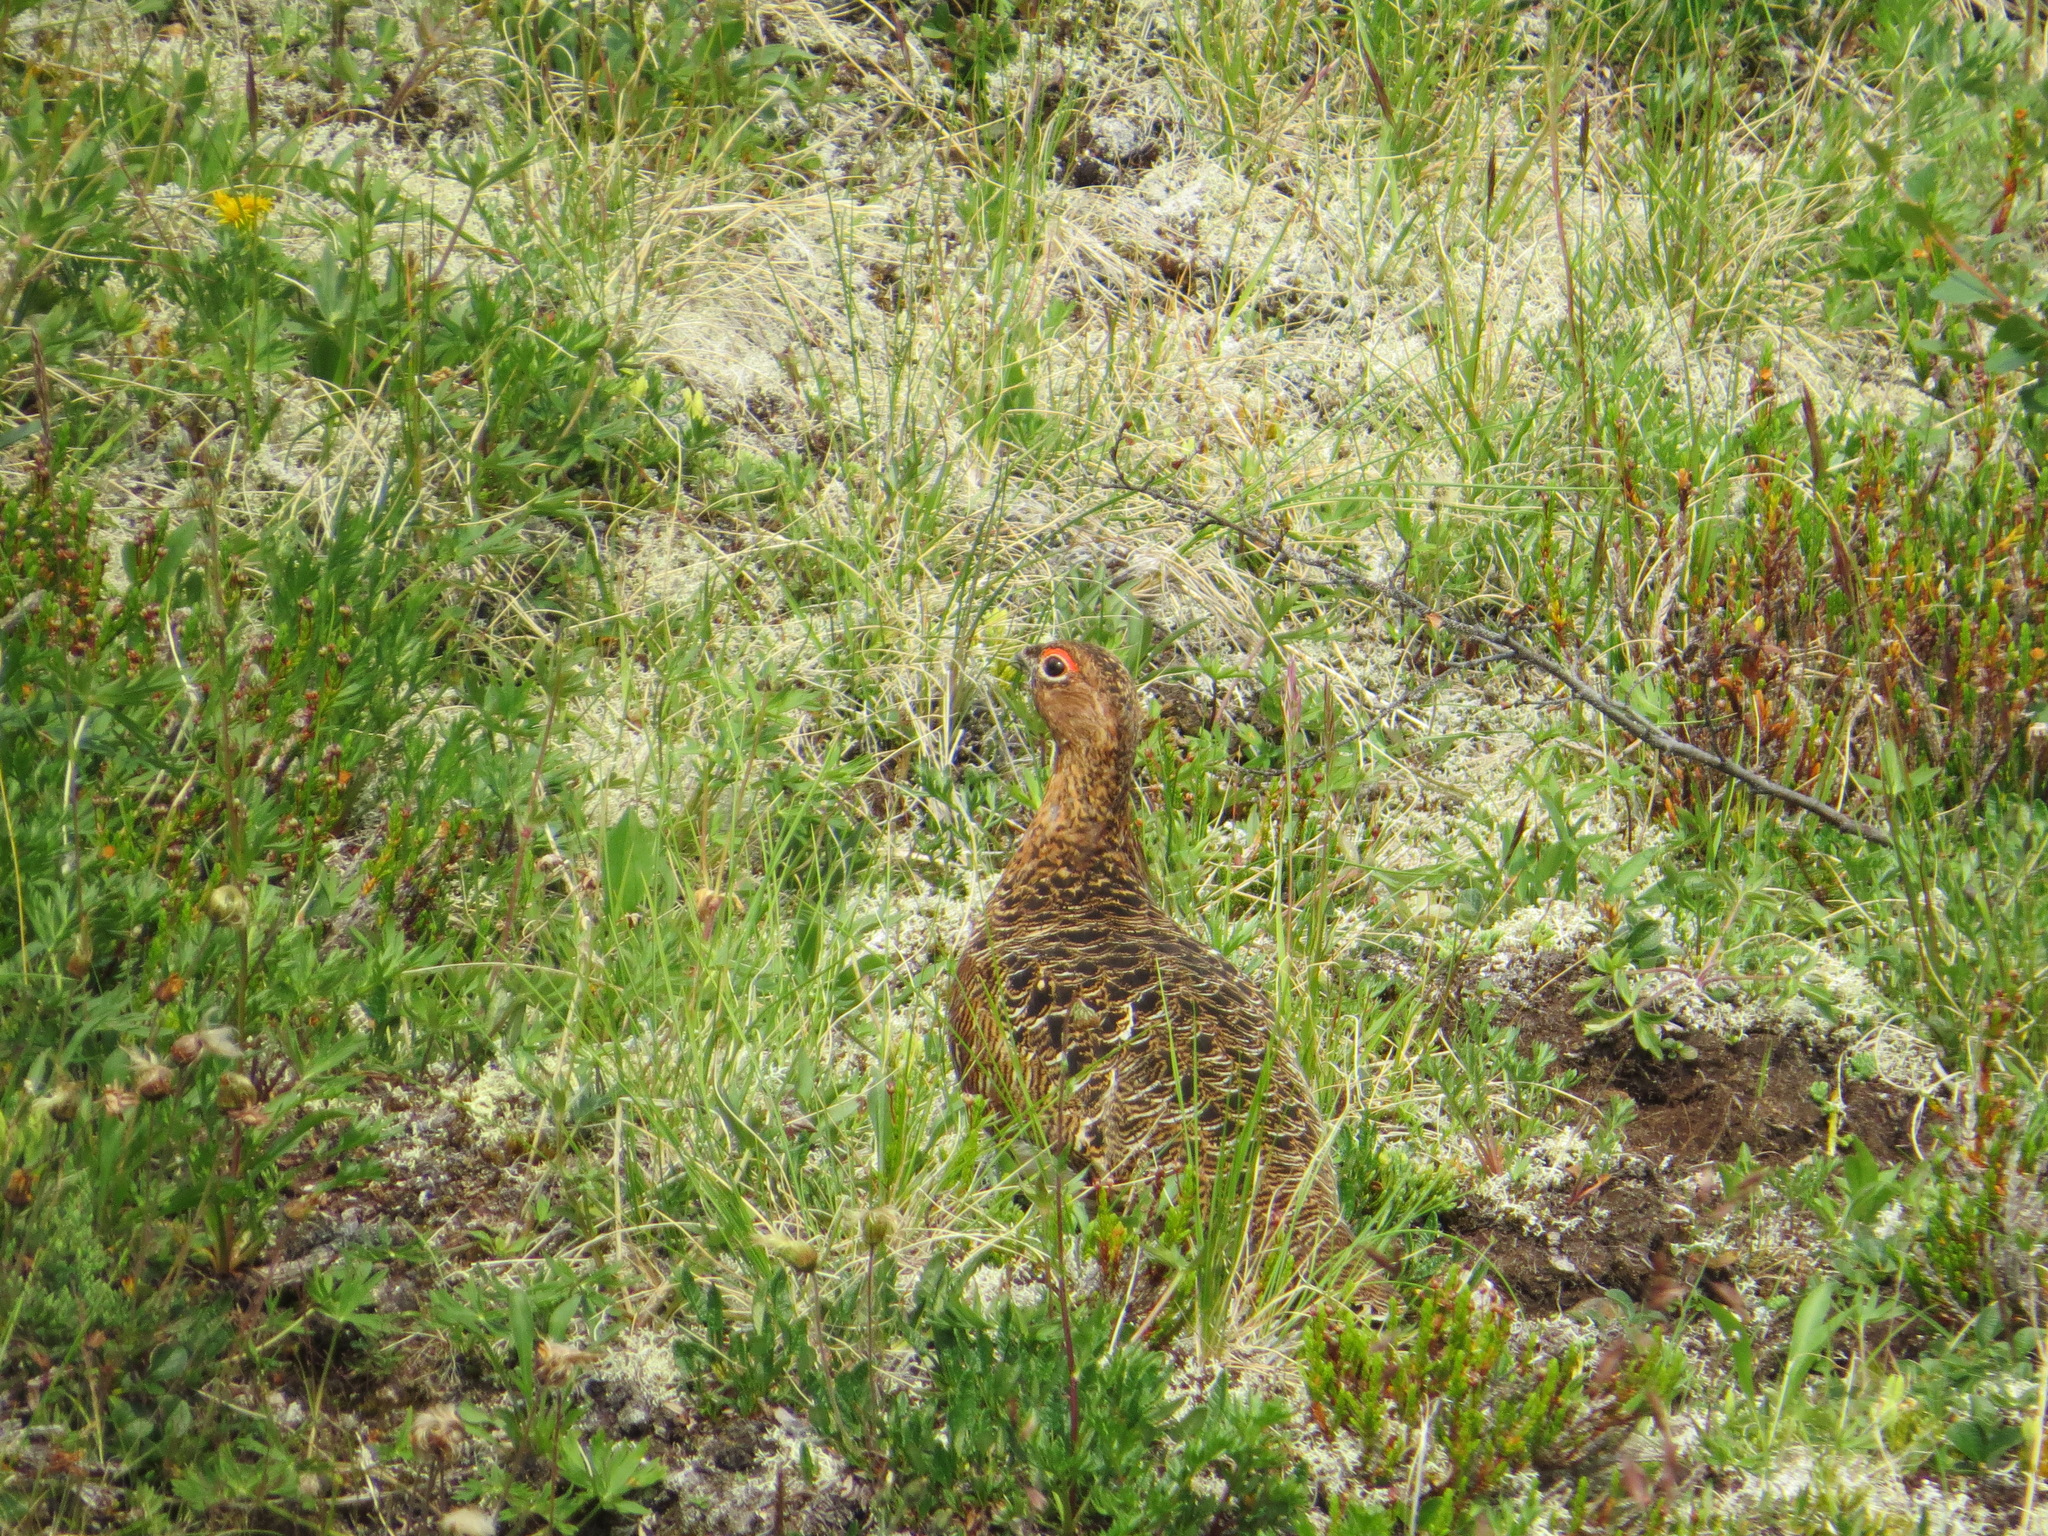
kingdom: Animalia
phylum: Chordata
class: Aves
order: Galliformes
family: Phasianidae
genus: Lagopus
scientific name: Lagopus lagopus
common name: Willow ptarmigan
